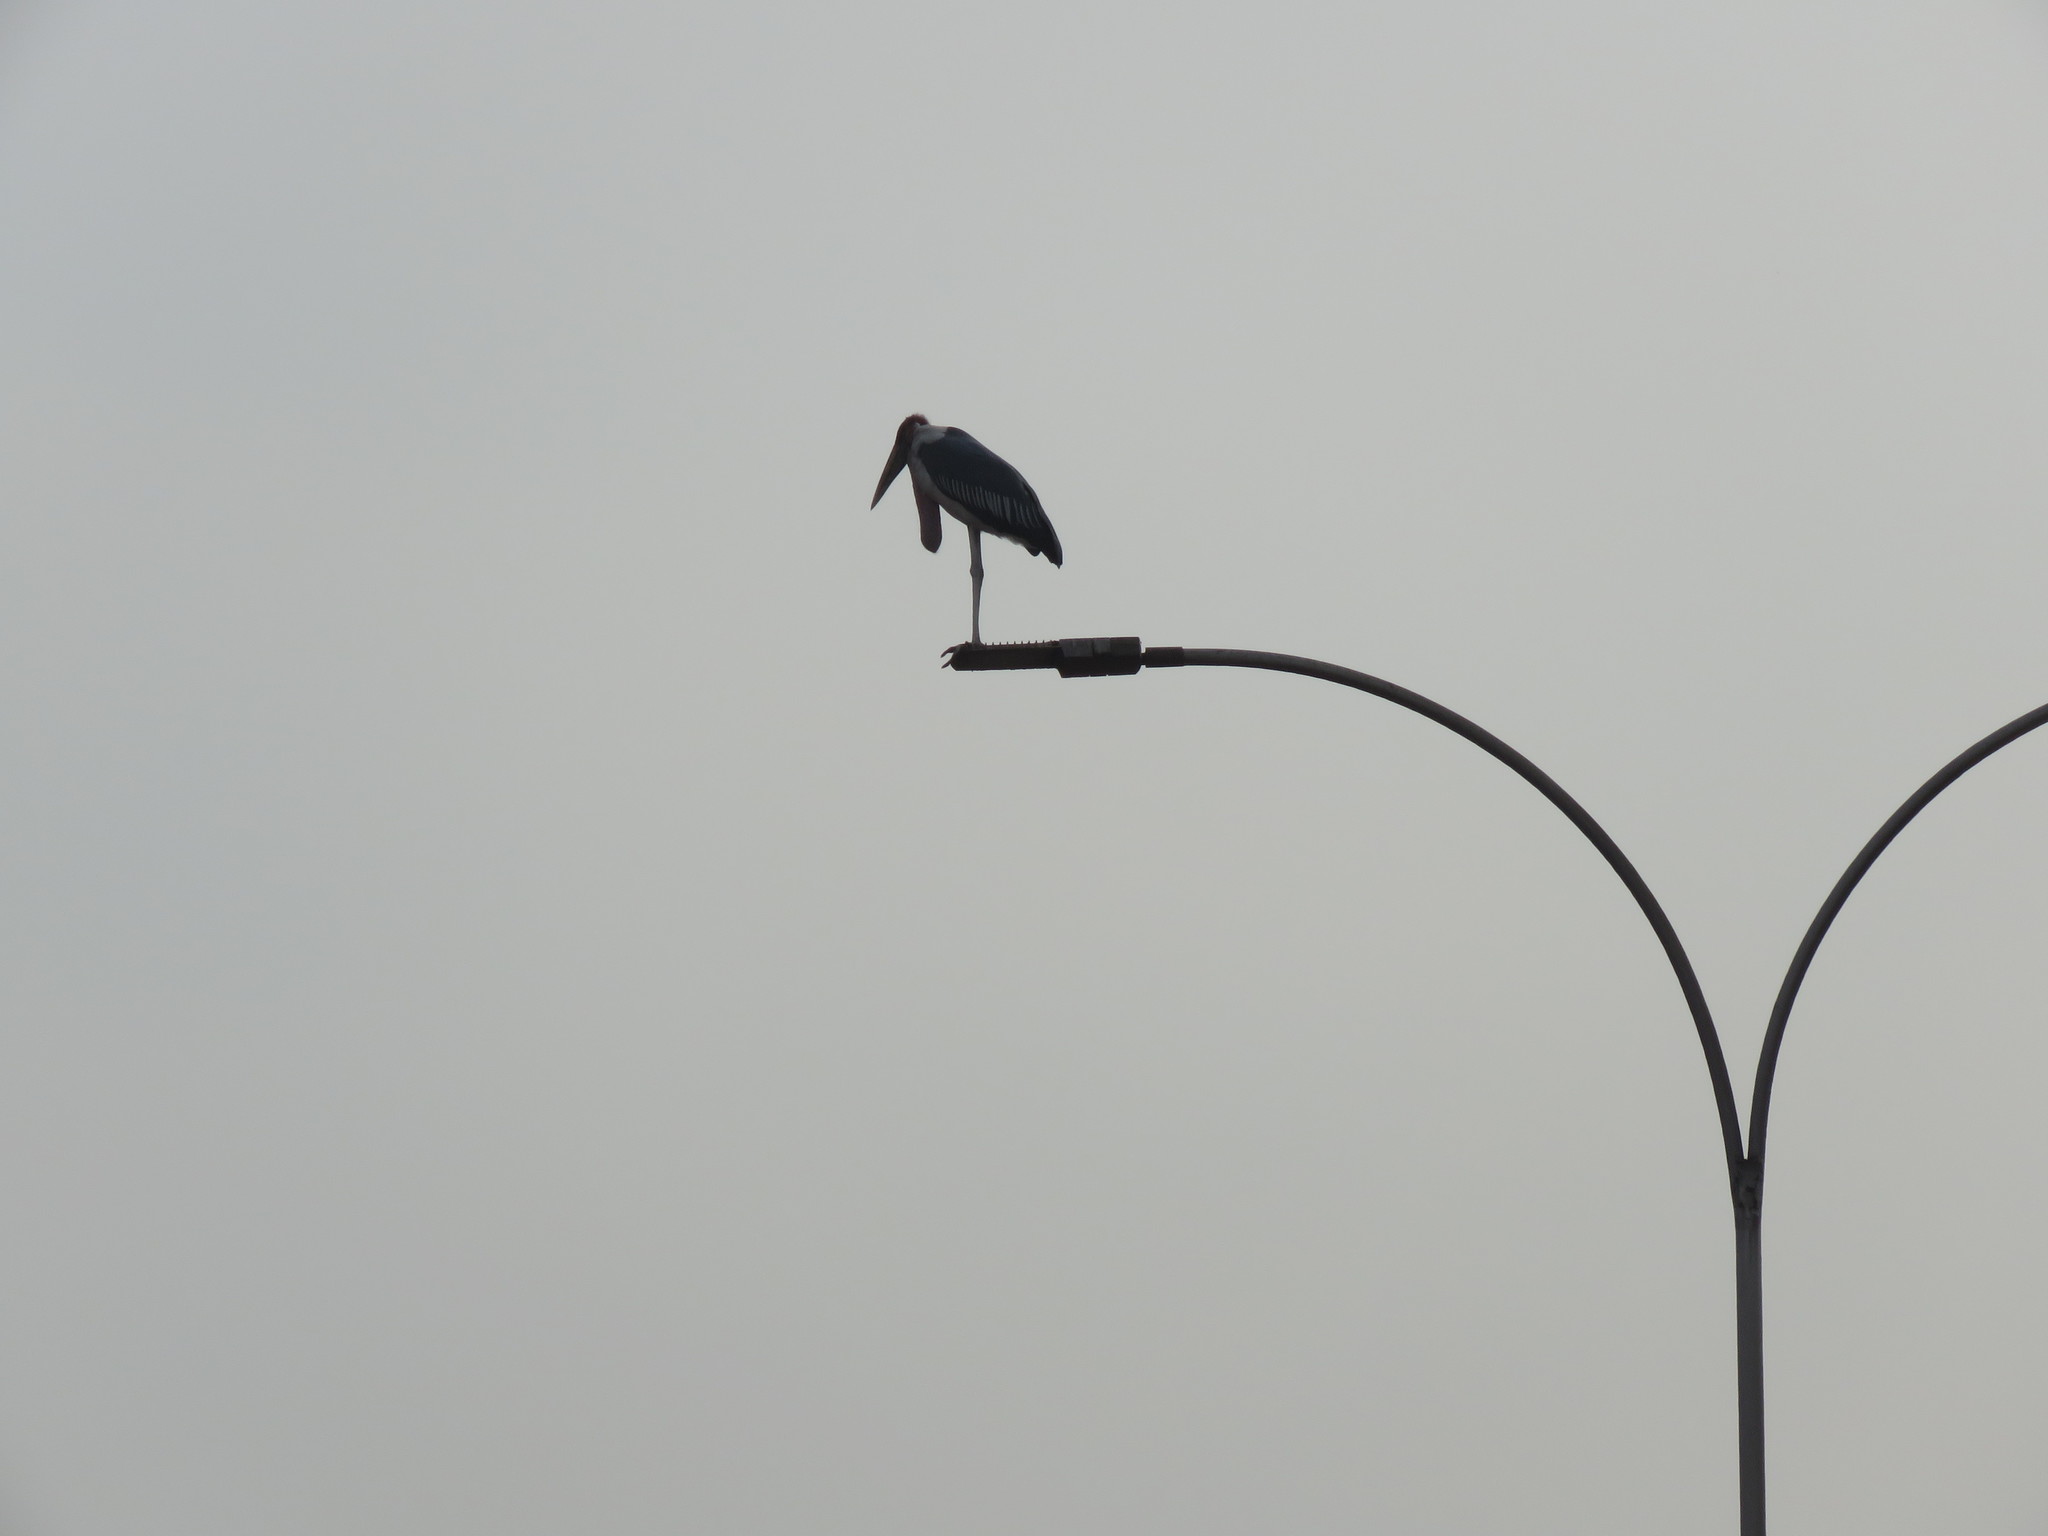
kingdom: Animalia
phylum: Chordata
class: Aves
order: Ciconiiformes
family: Ciconiidae
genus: Leptoptilos
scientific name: Leptoptilos crumenifer
